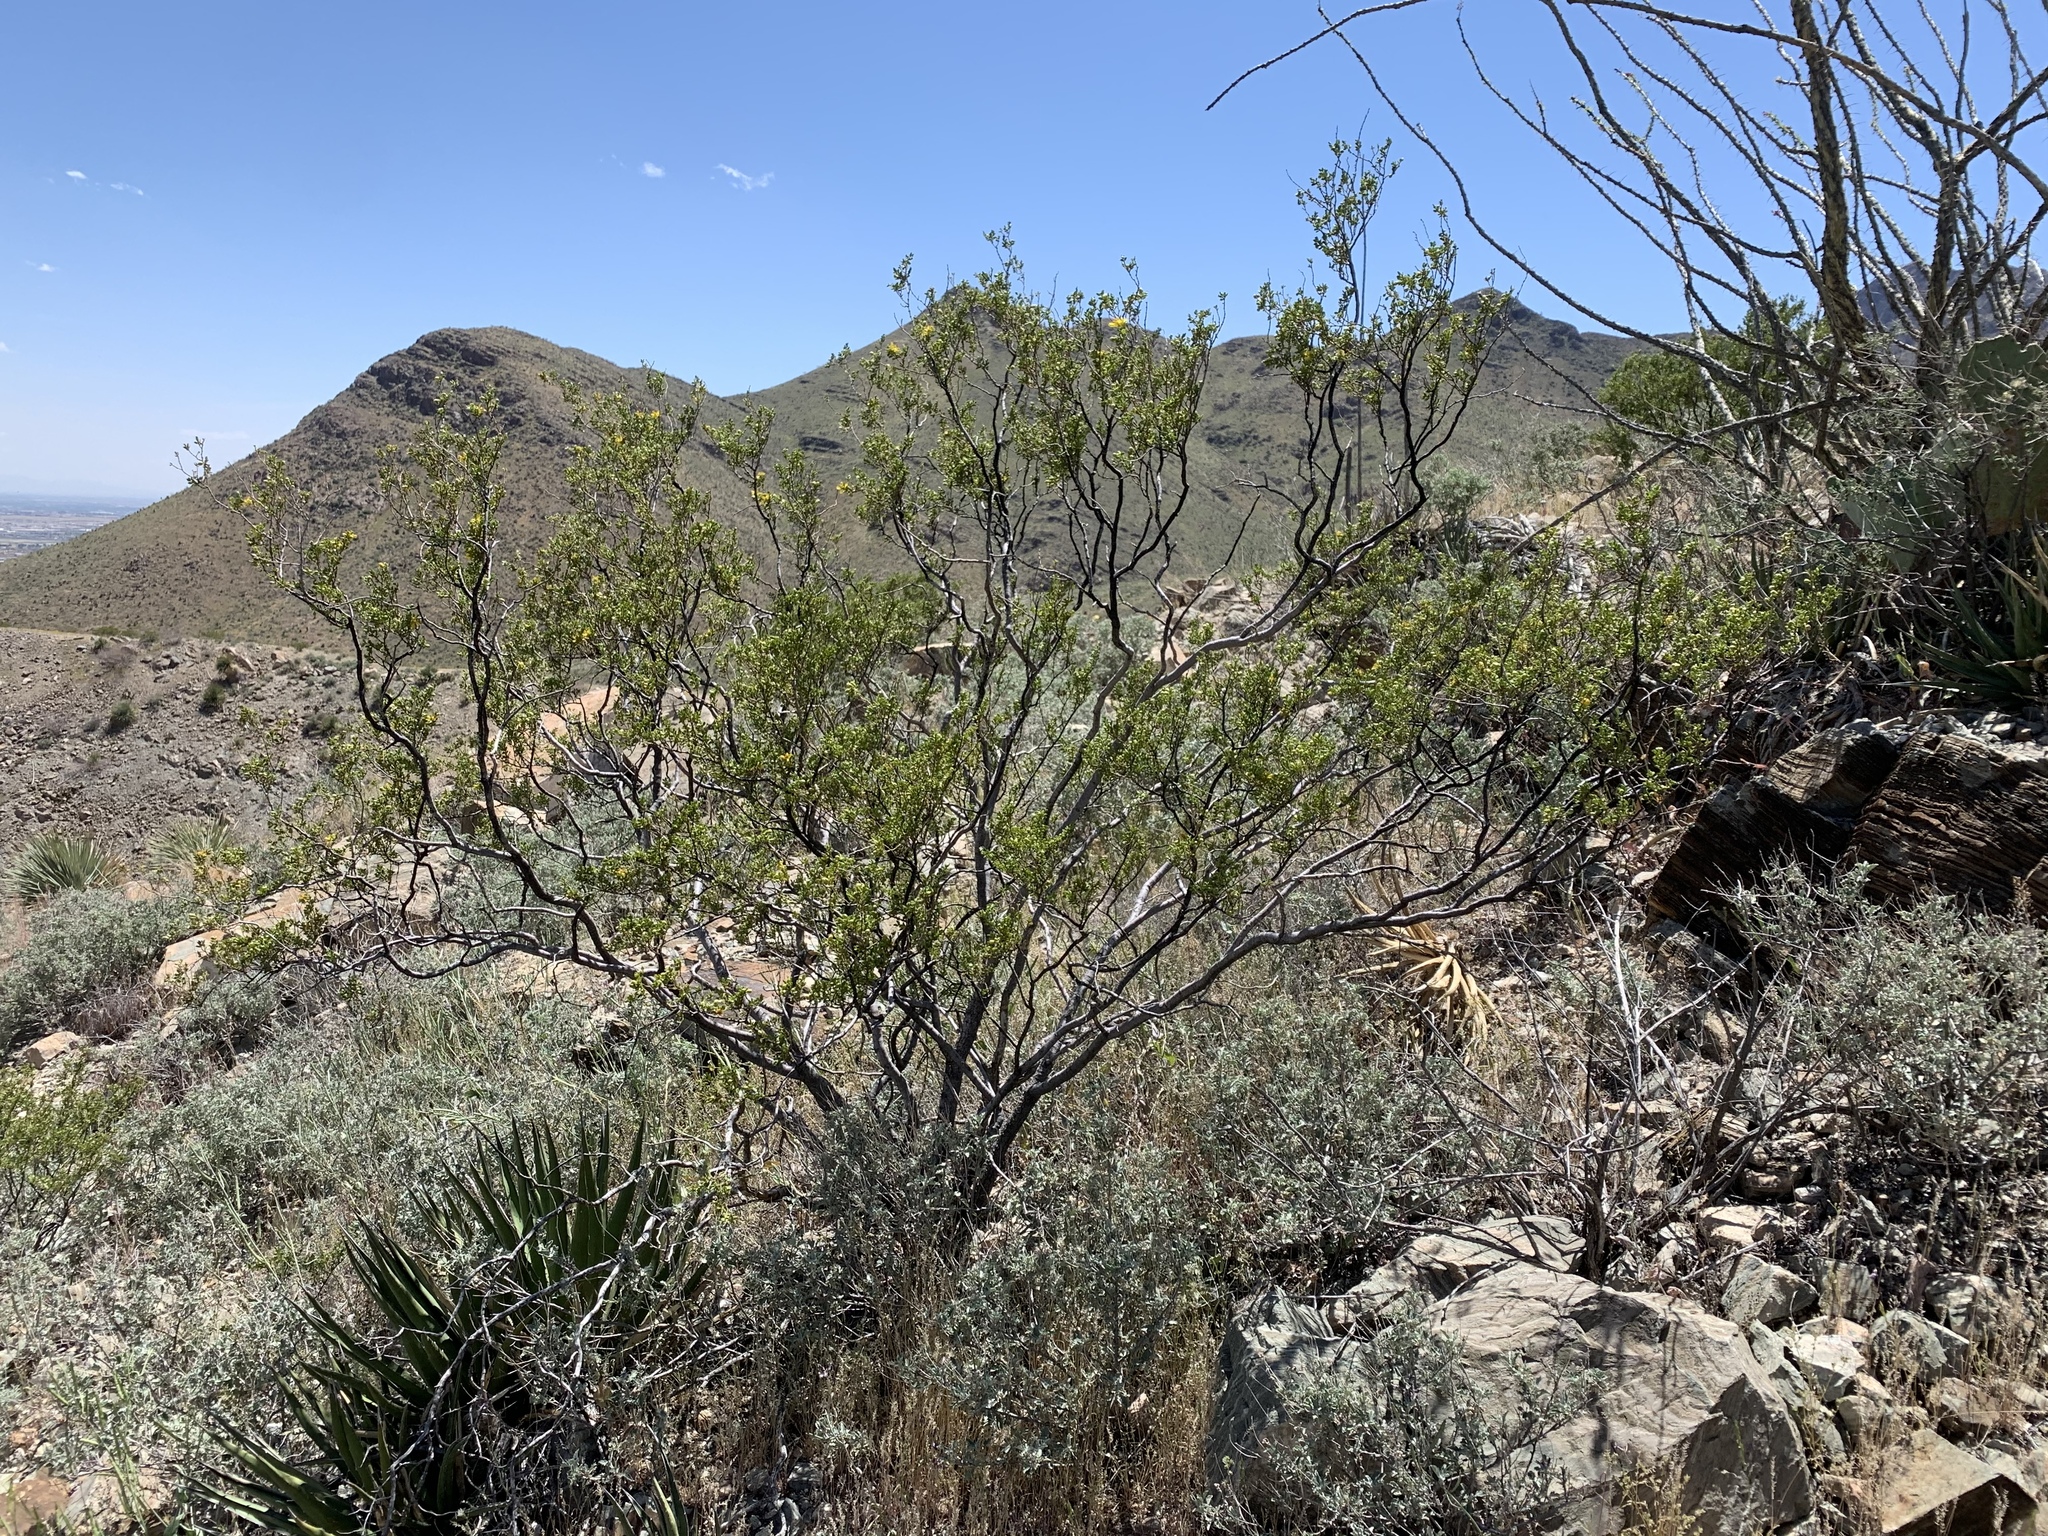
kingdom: Plantae
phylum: Tracheophyta
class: Magnoliopsida
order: Zygophyllales
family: Zygophyllaceae
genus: Larrea
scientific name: Larrea tridentata
